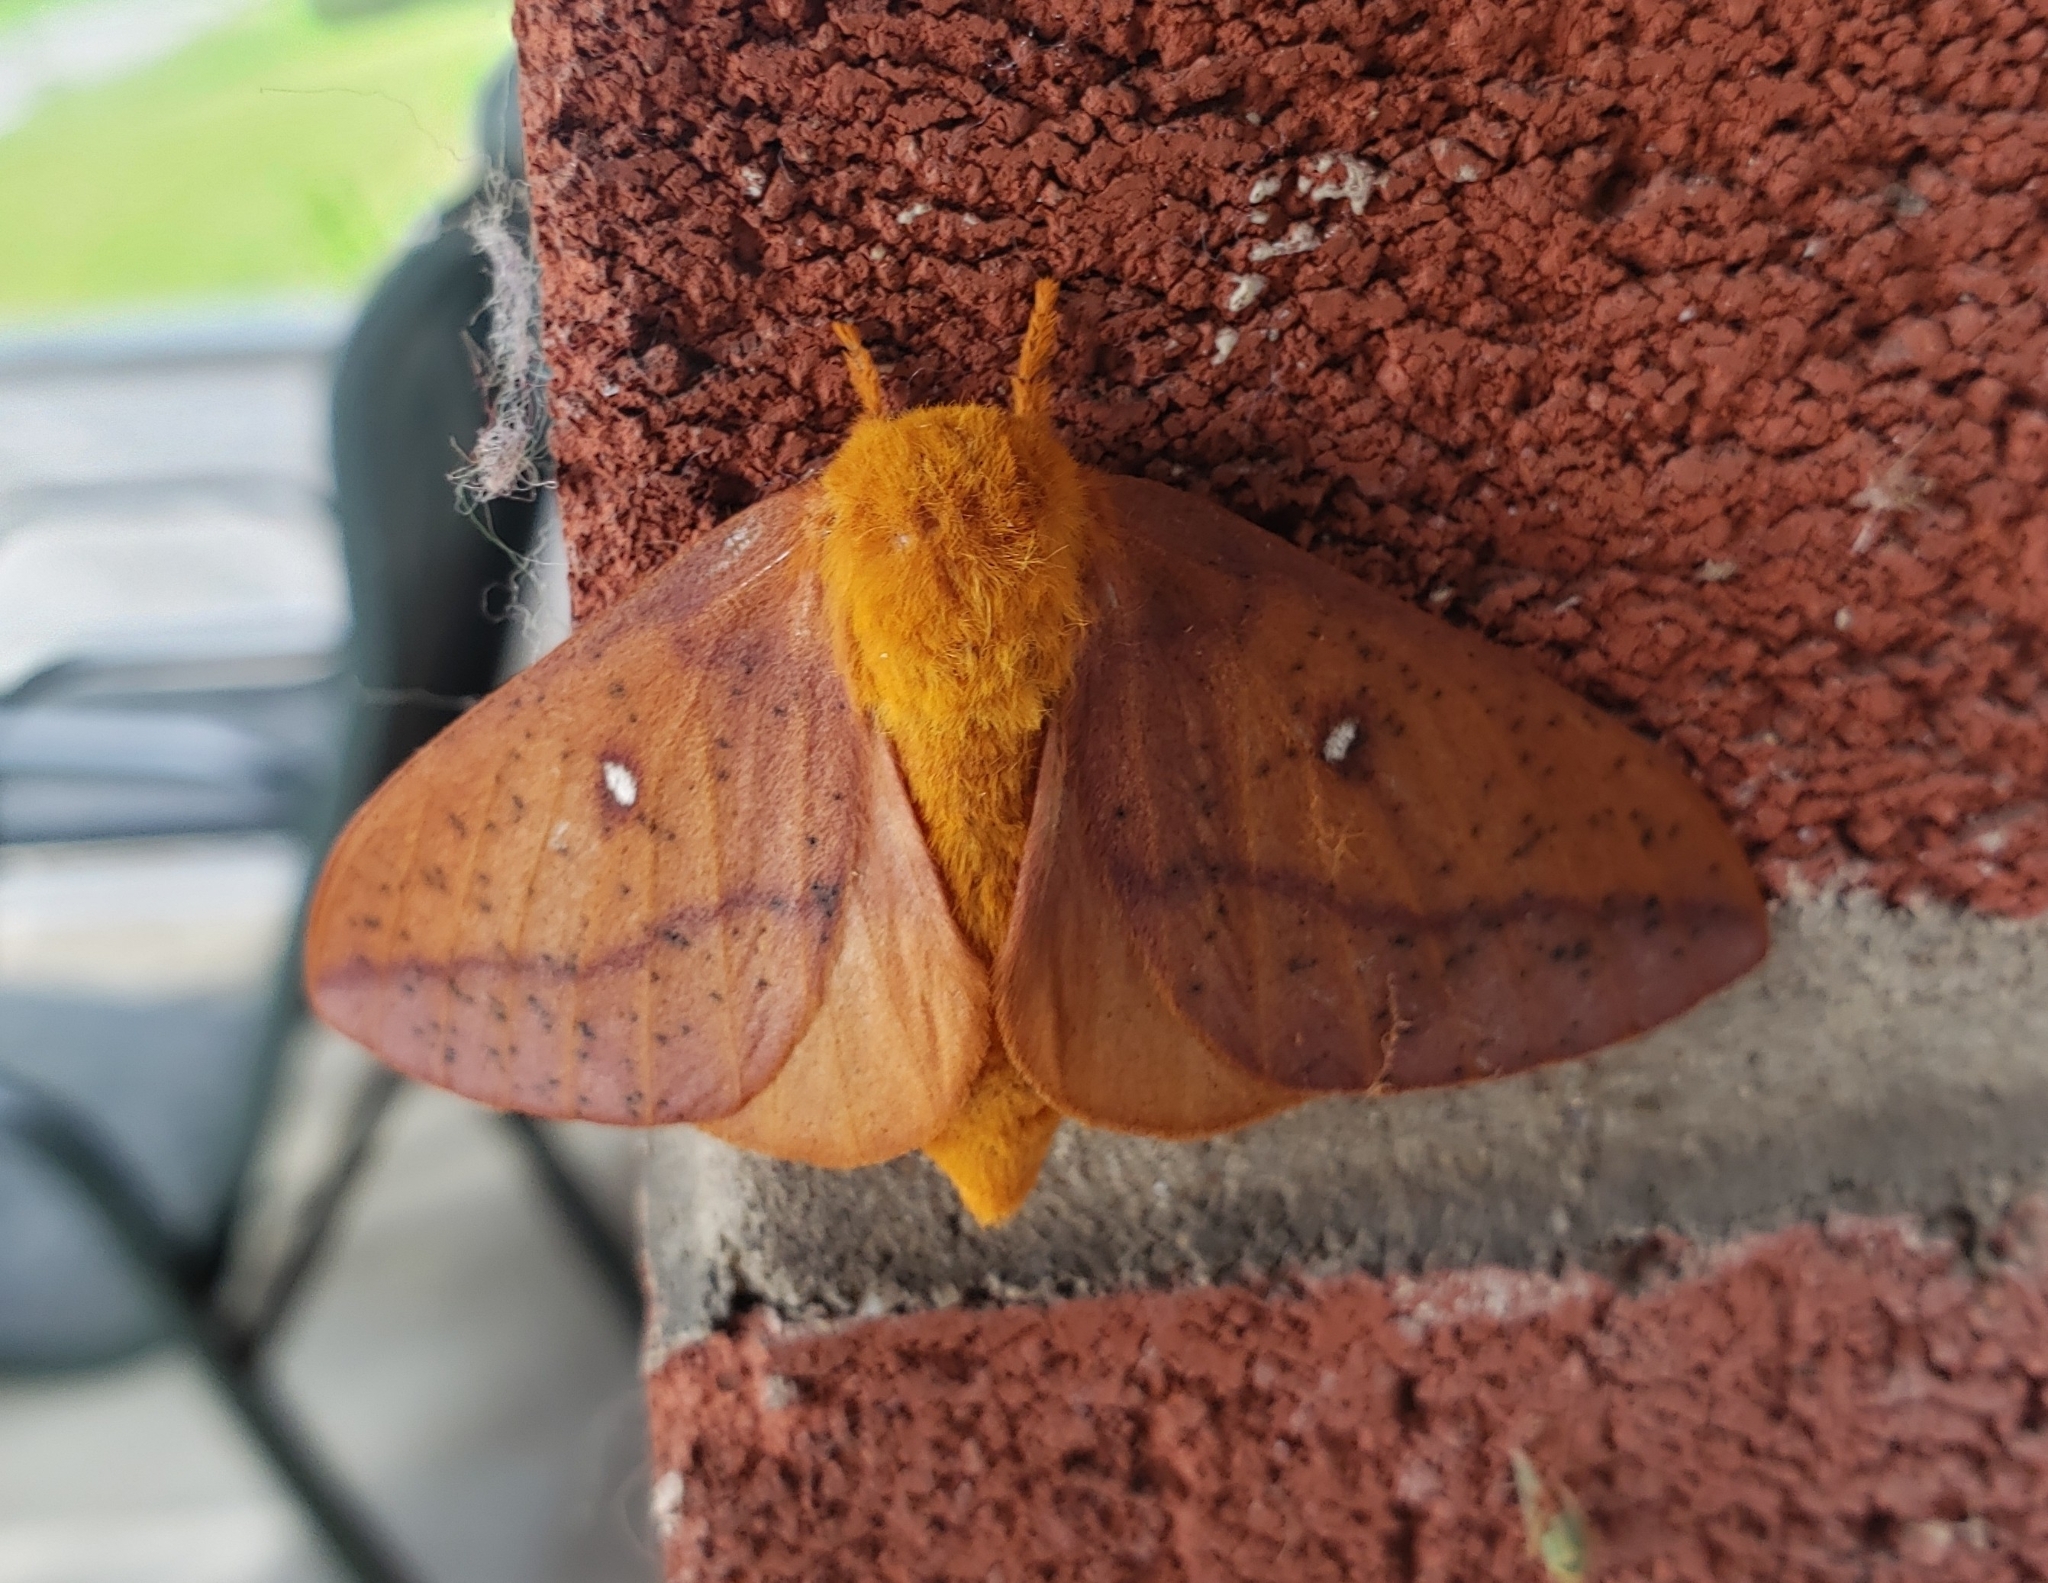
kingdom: Animalia
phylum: Arthropoda
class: Insecta
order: Lepidoptera
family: Saturniidae
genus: Anisota
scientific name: Anisota senatoria
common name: Orange-striped oakworm moth
